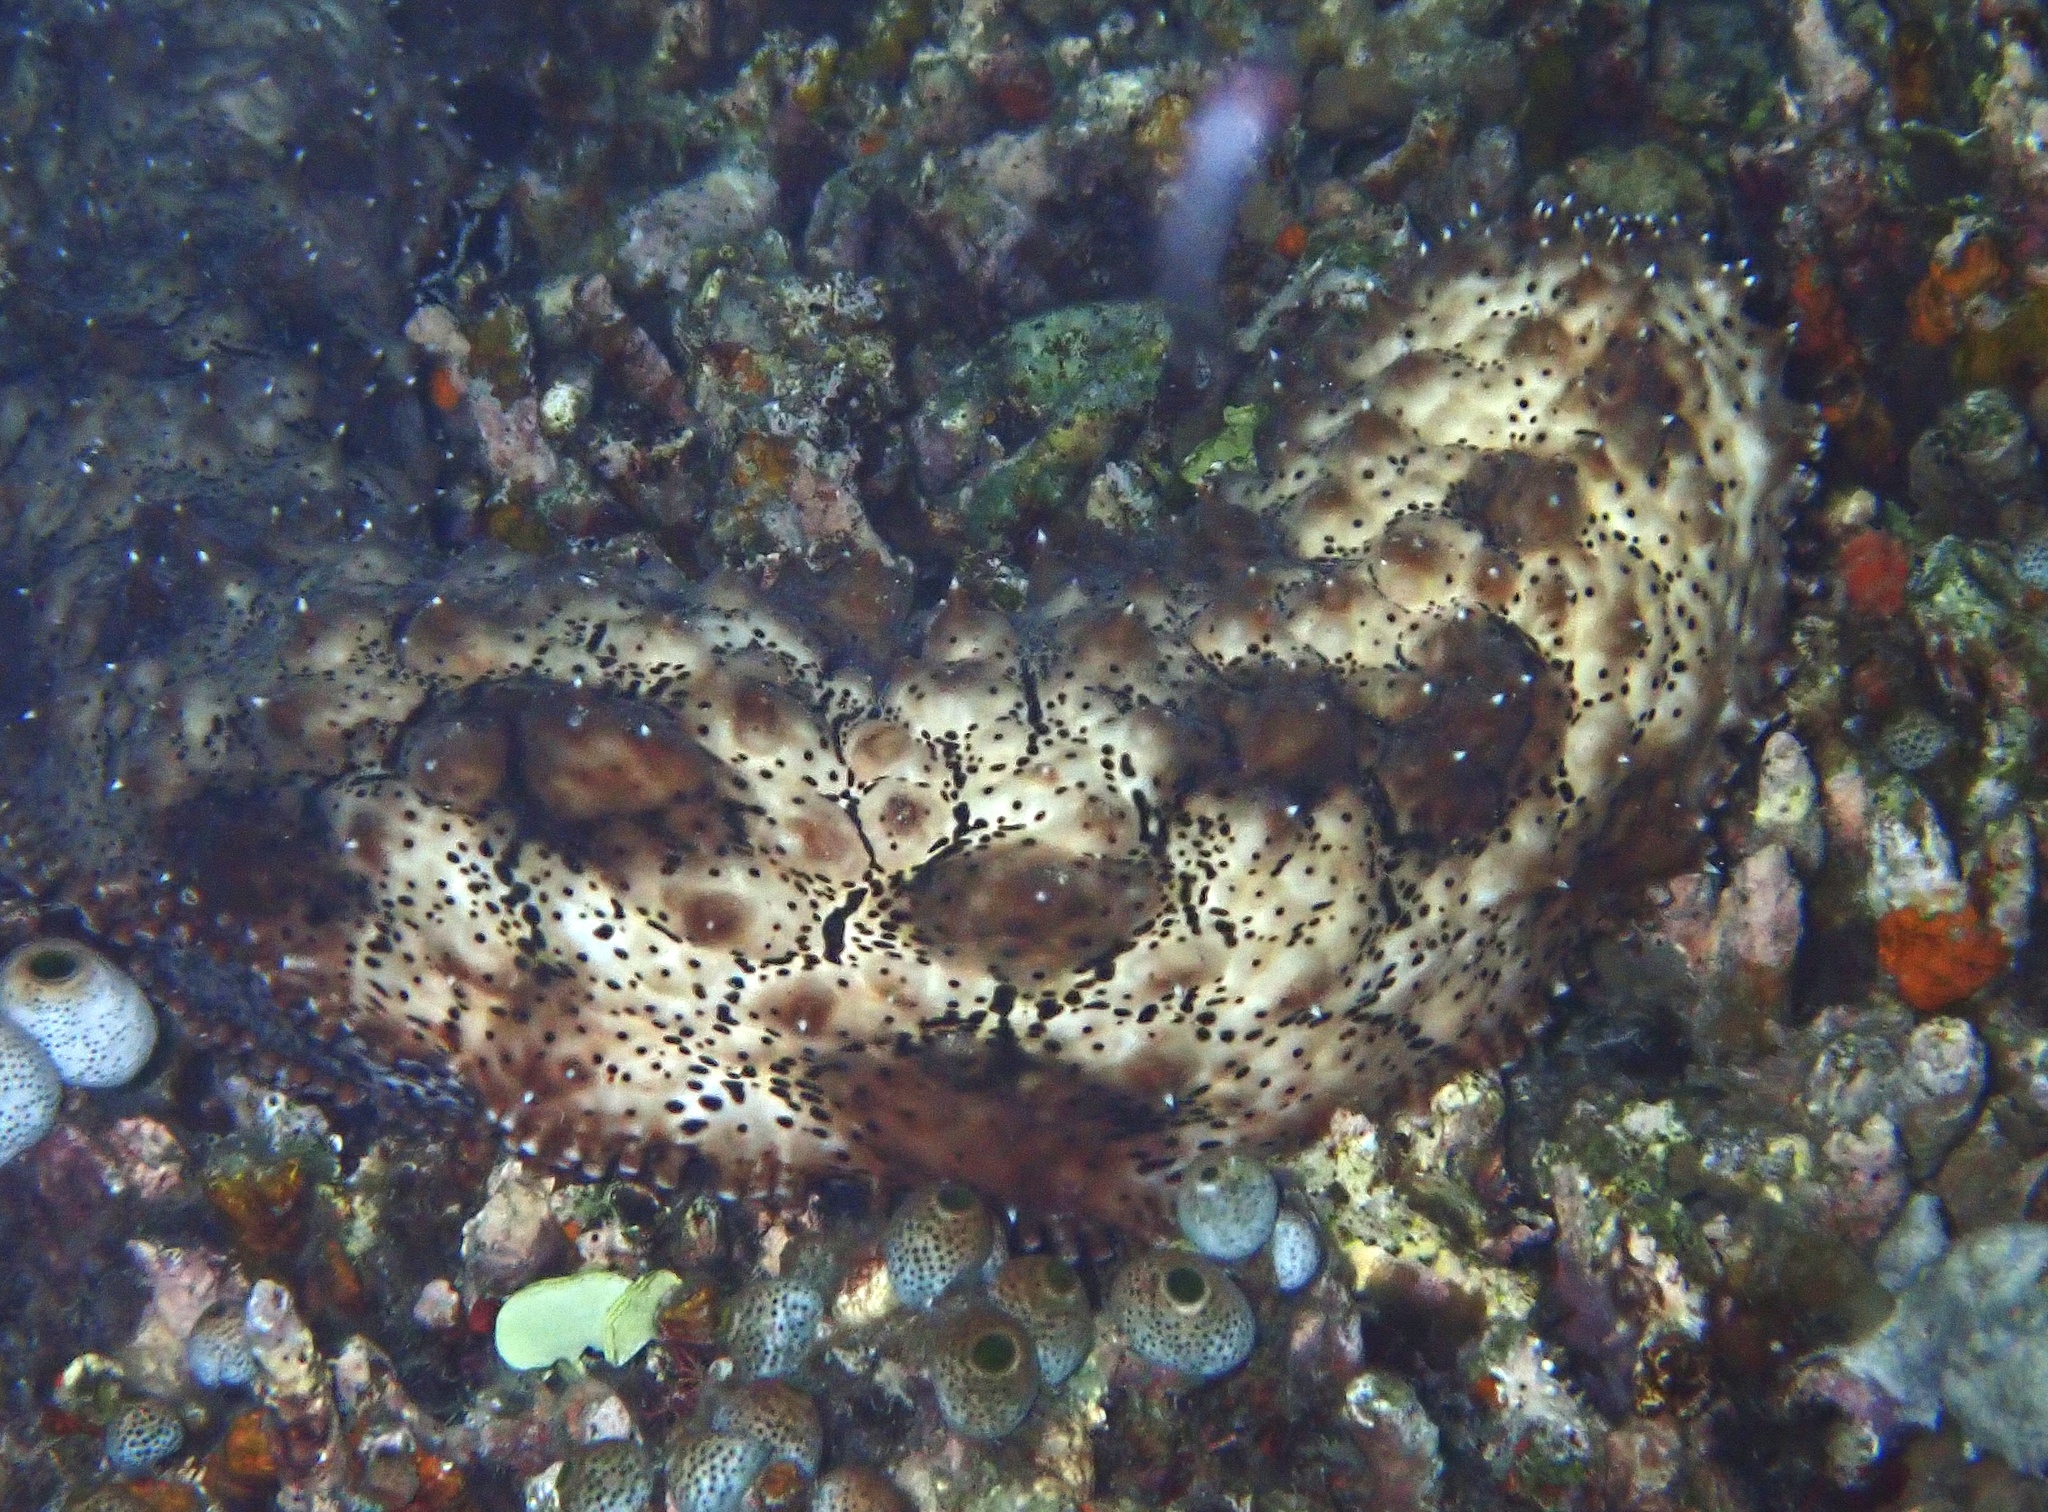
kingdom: Animalia
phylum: Echinodermata
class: Holothuroidea
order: Holothuriida
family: Holothuriidae
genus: Pearsonothuria
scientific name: Pearsonothuria graeffei
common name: Blackspotted sea cucumber
